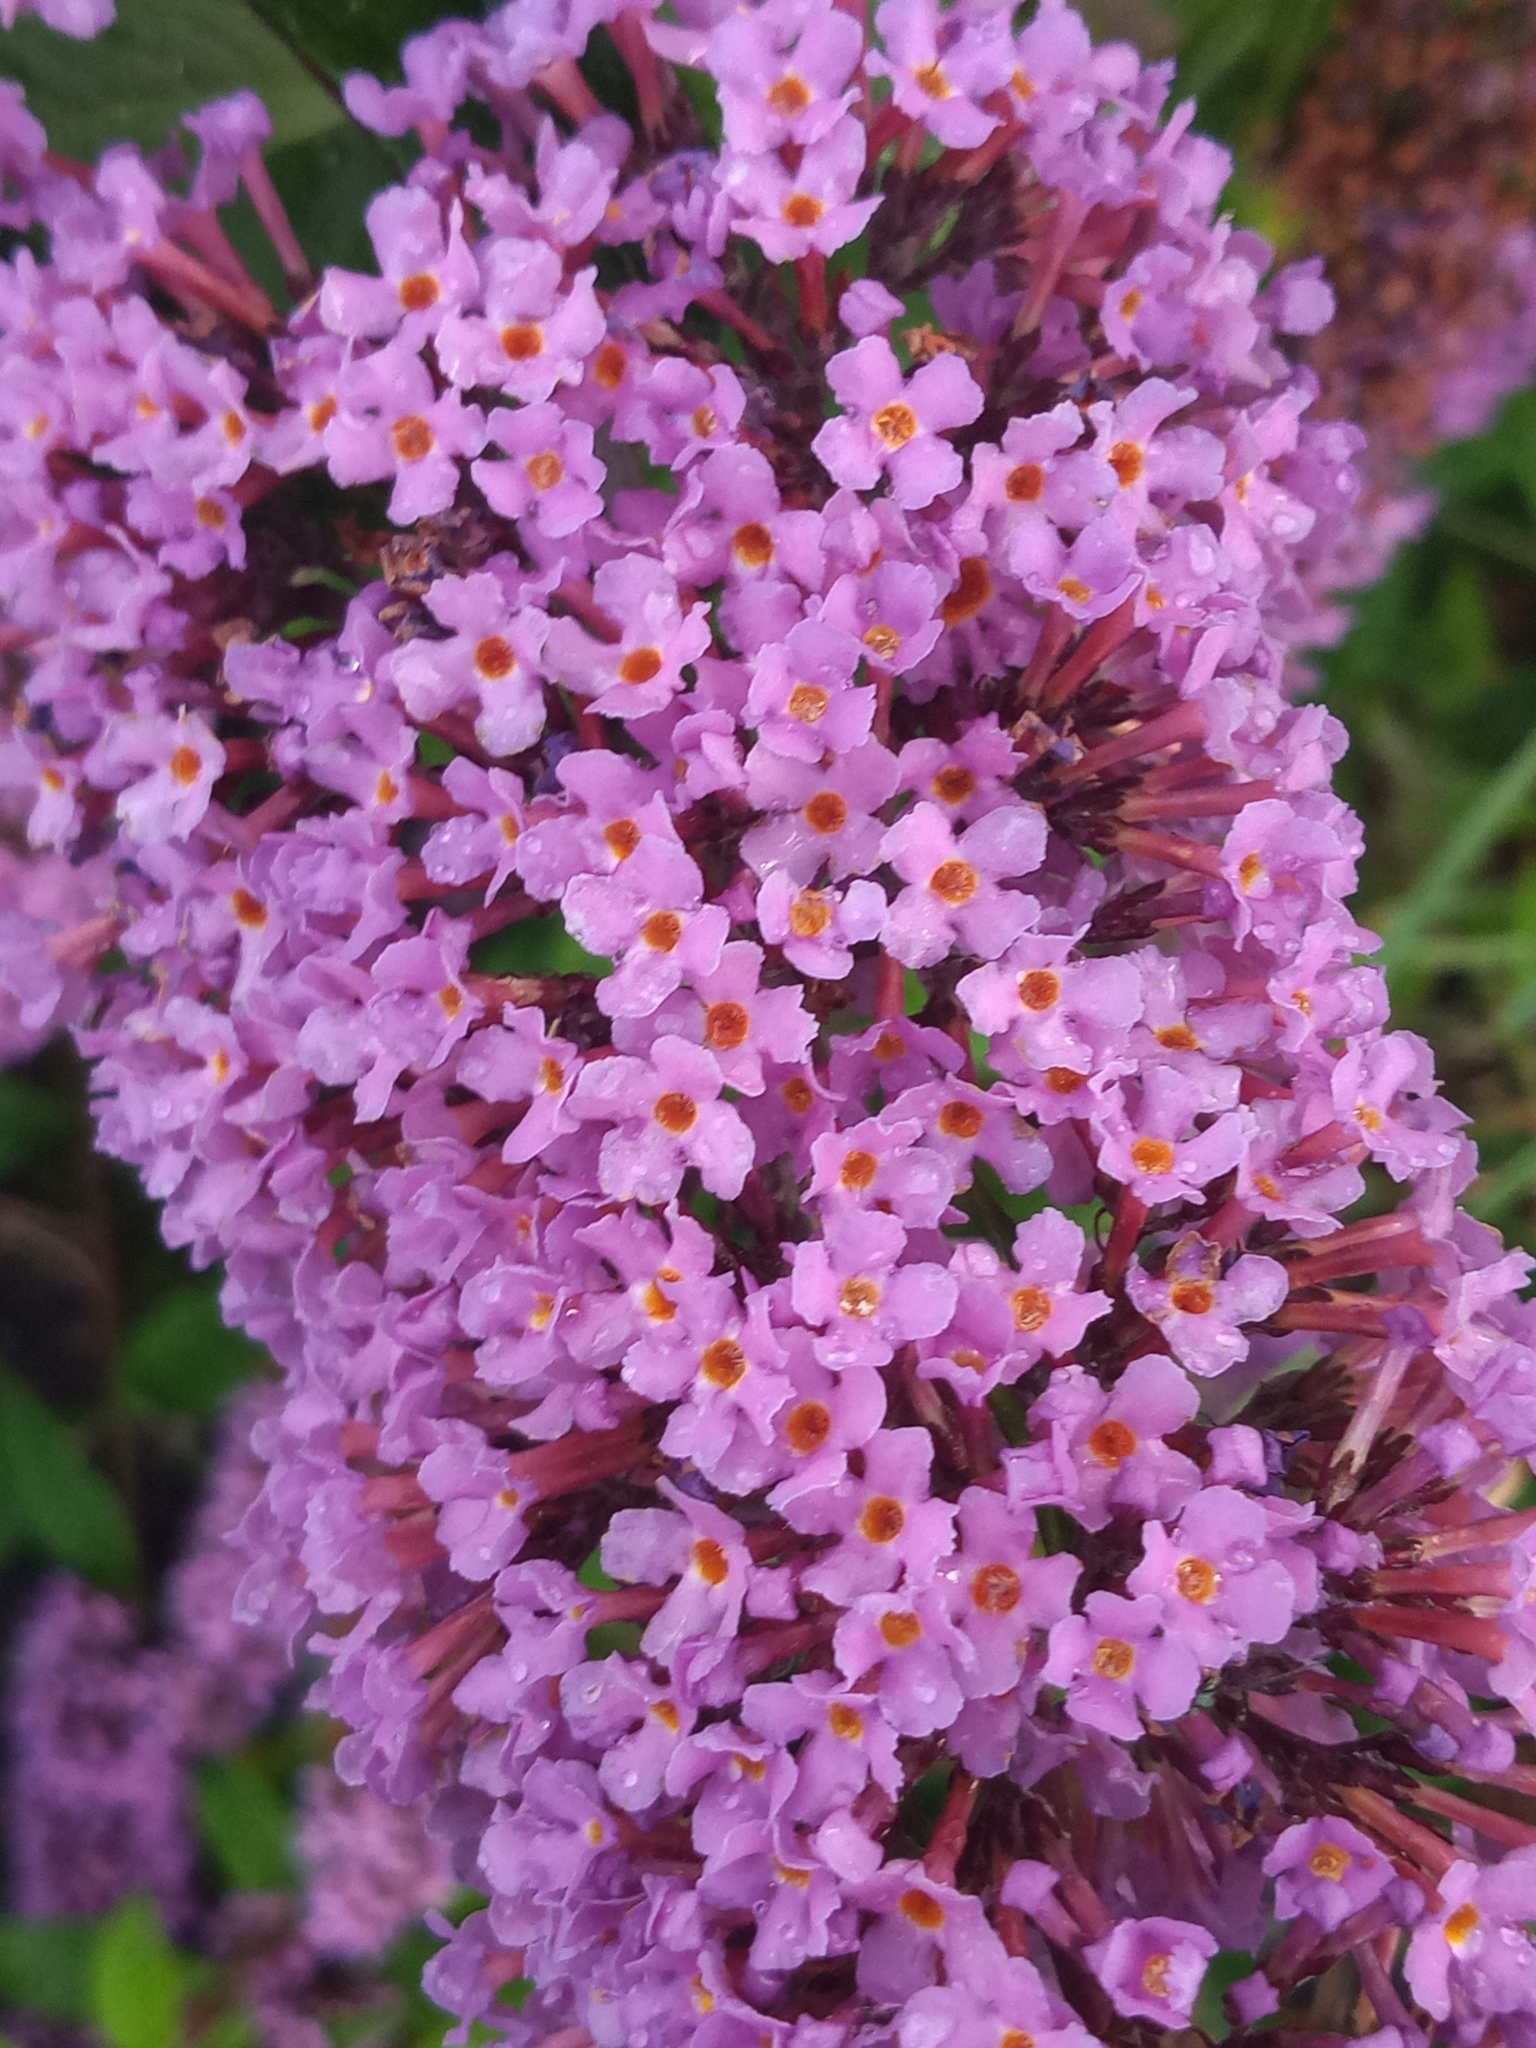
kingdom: Plantae
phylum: Tracheophyta
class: Magnoliopsida
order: Lamiales
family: Scrophulariaceae
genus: Buddleja
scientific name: Buddleja davidii
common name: Butterfly-bush
